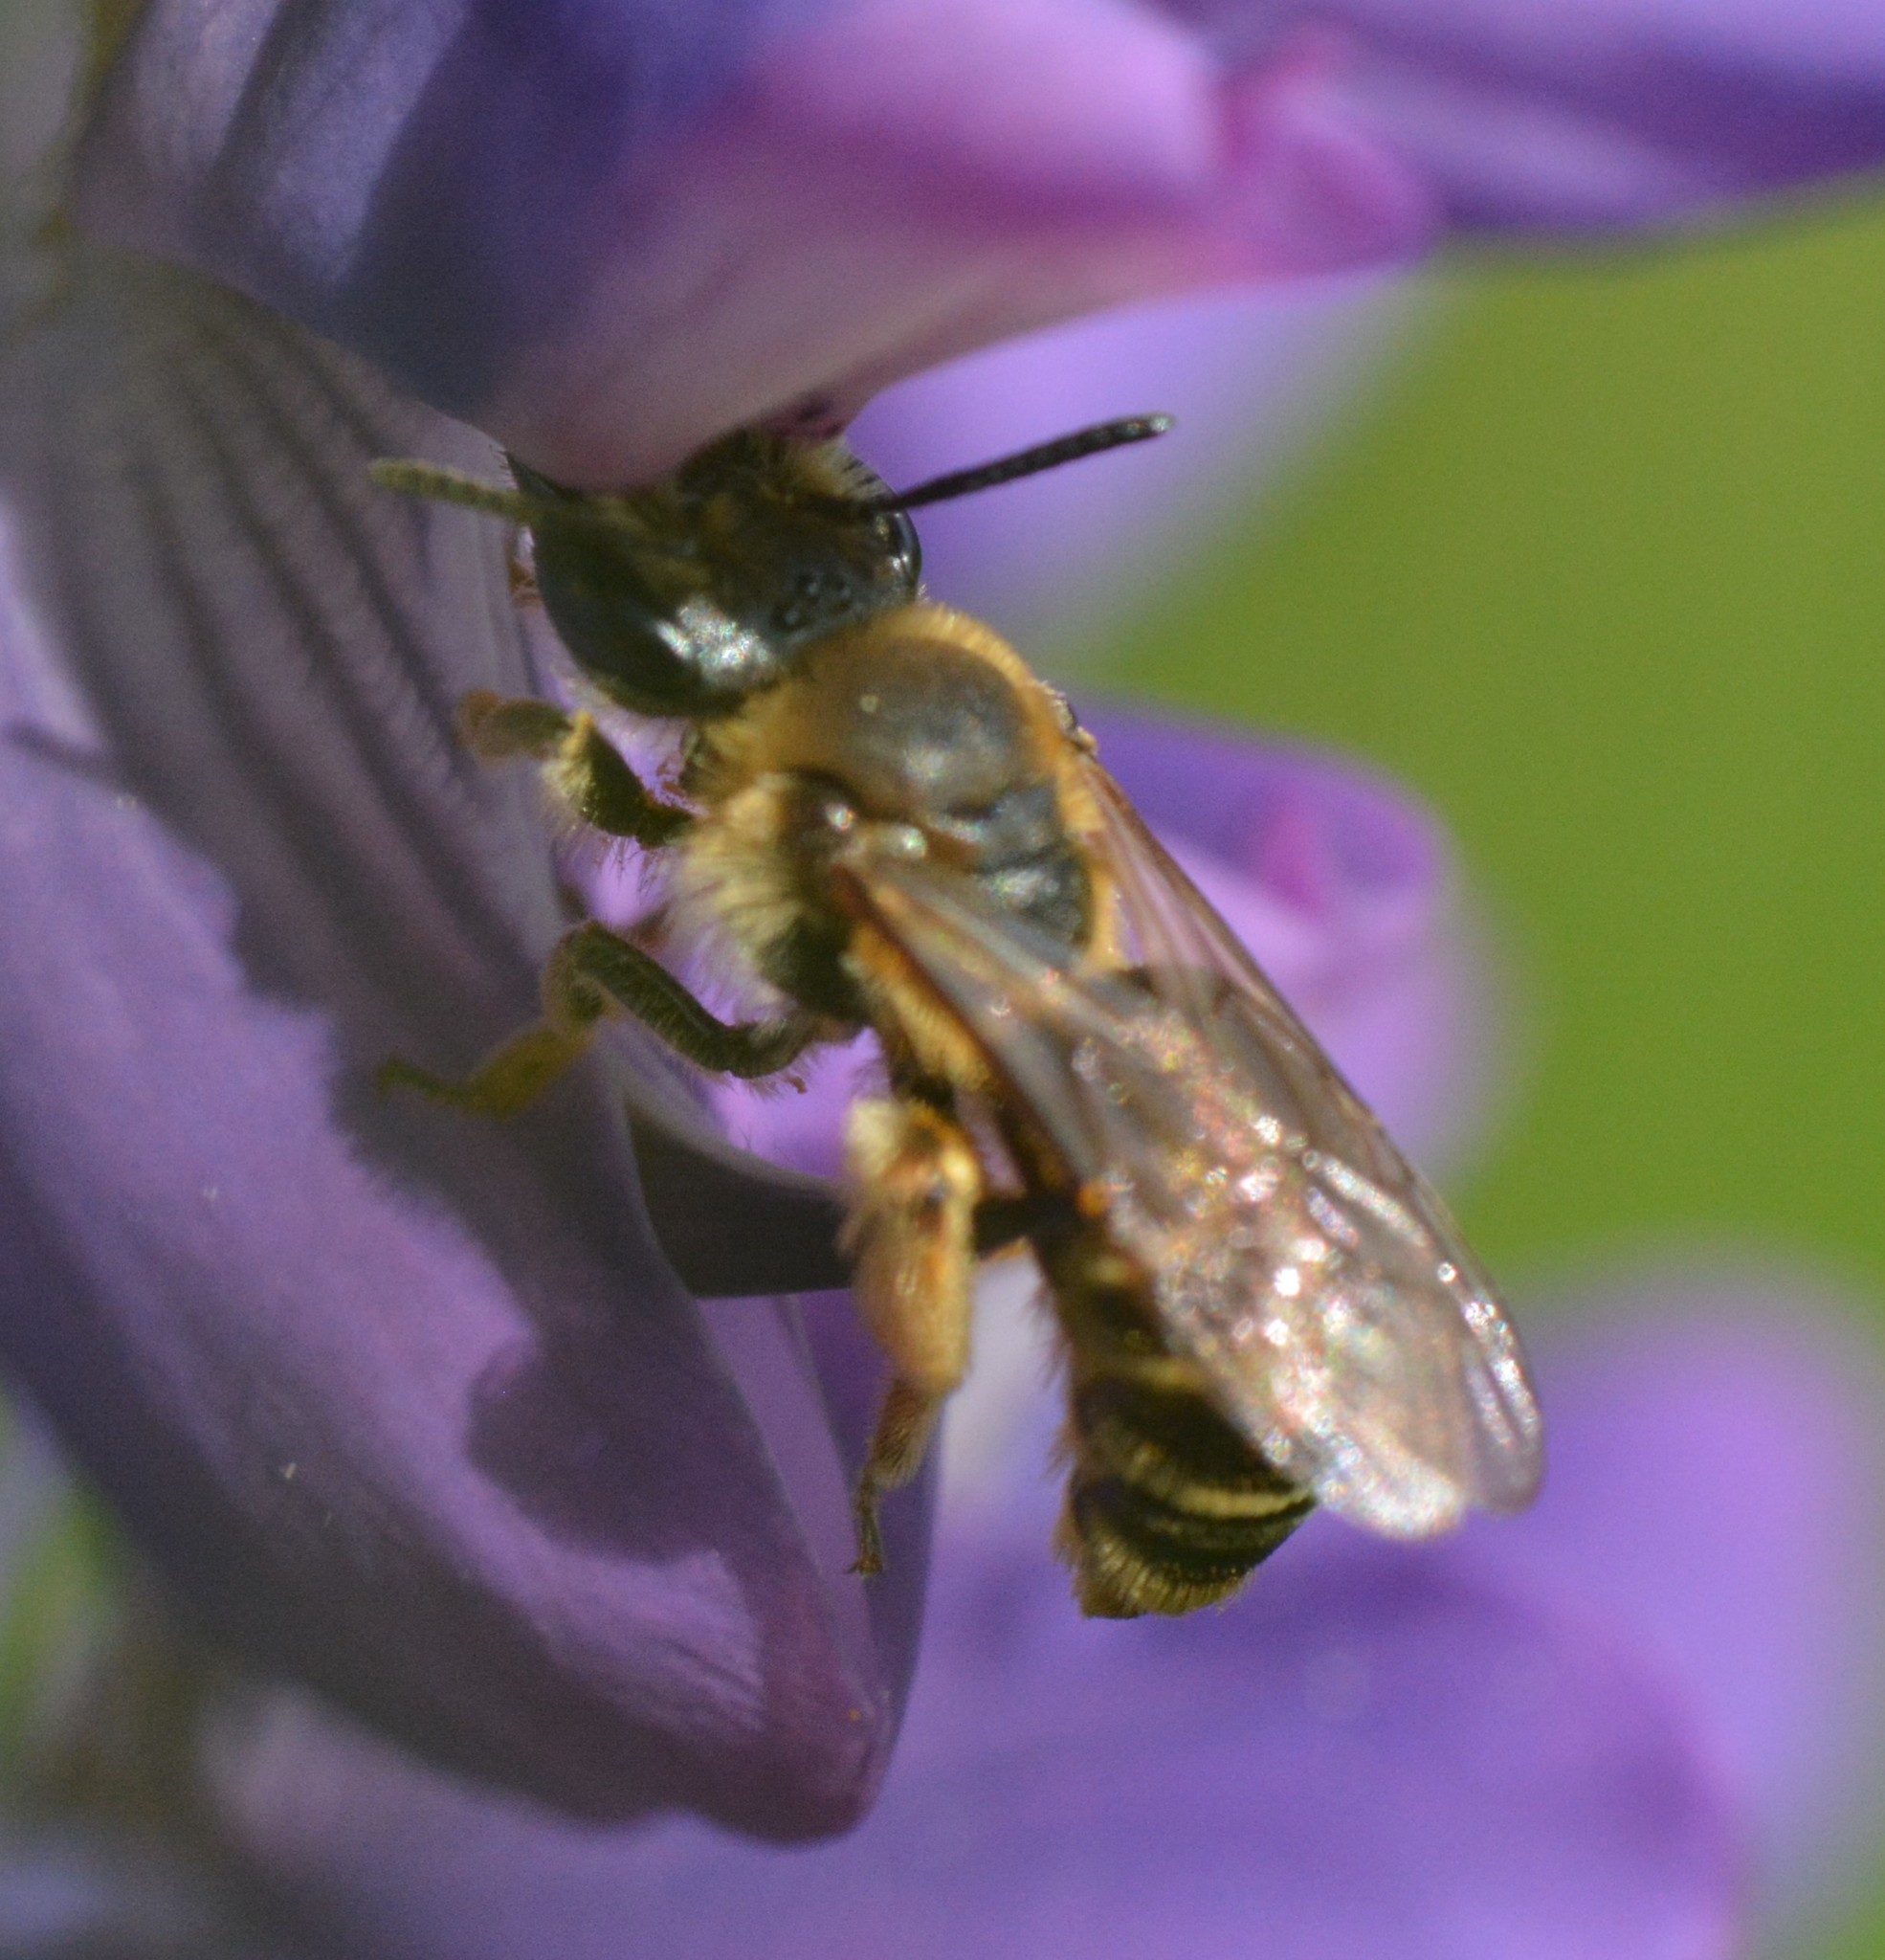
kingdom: Animalia
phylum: Arthropoda
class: Insecta
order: Hymenoptera
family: Andrenidae
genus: Andrena
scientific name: Andrena wilkella
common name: Wilke's mining bee
